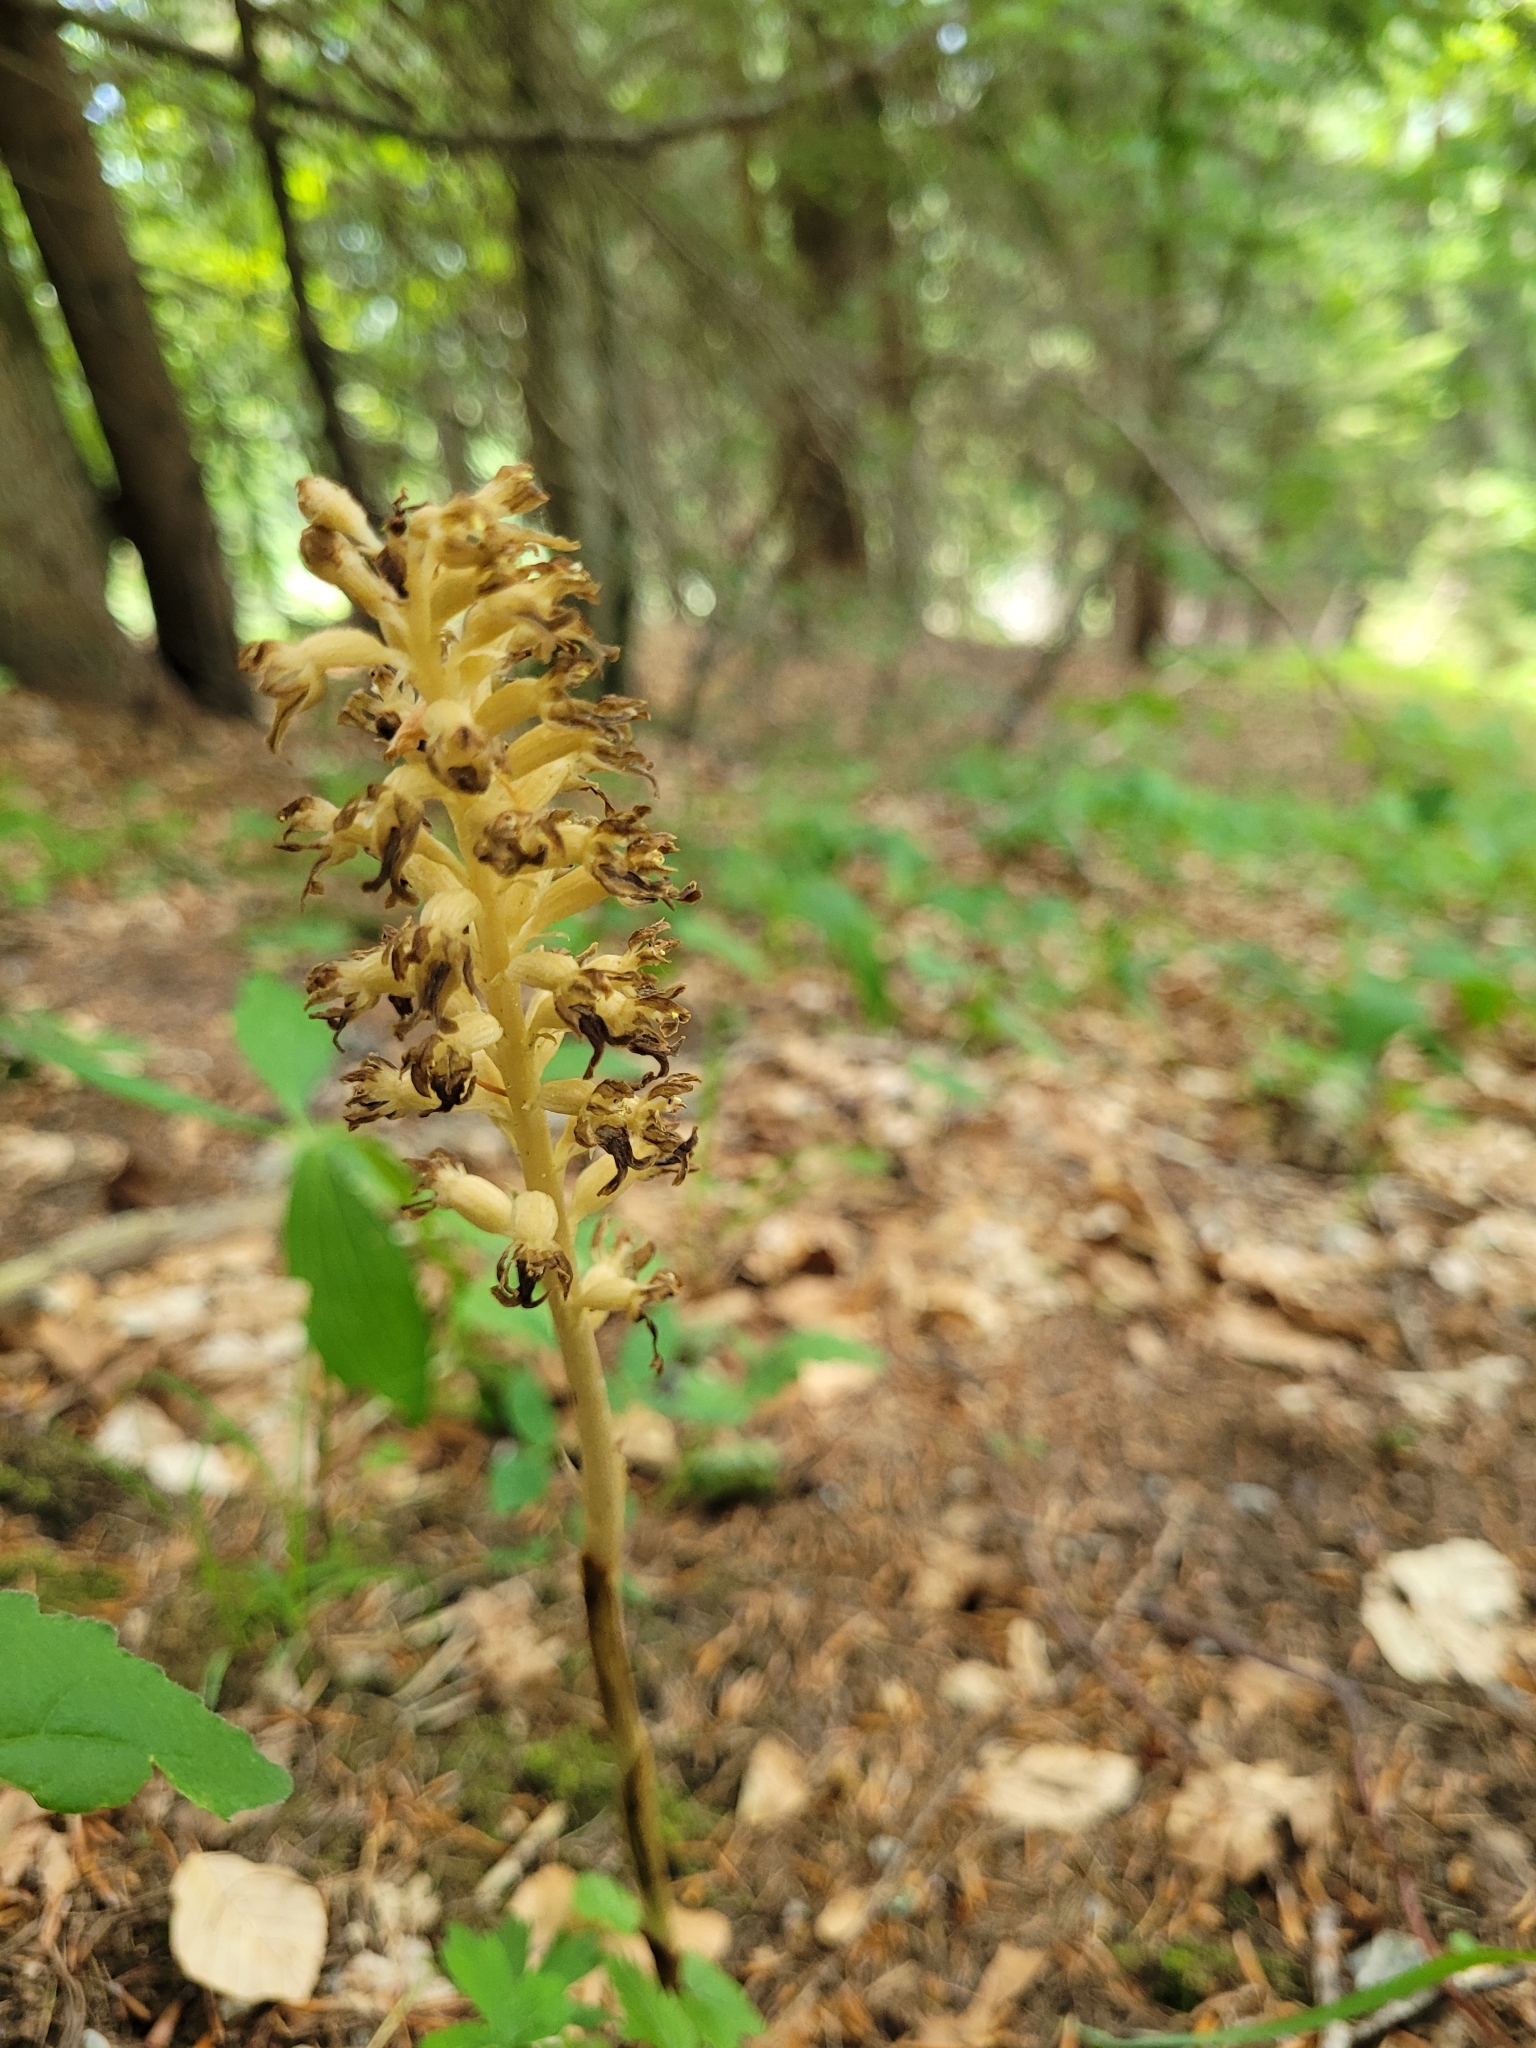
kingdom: Plantae
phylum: Tracheophyta
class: Liliopsida
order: Asparagales
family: Orchidaceae
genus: Neottia
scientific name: Neottia nidus-avis
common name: Bird's-nest orchid
